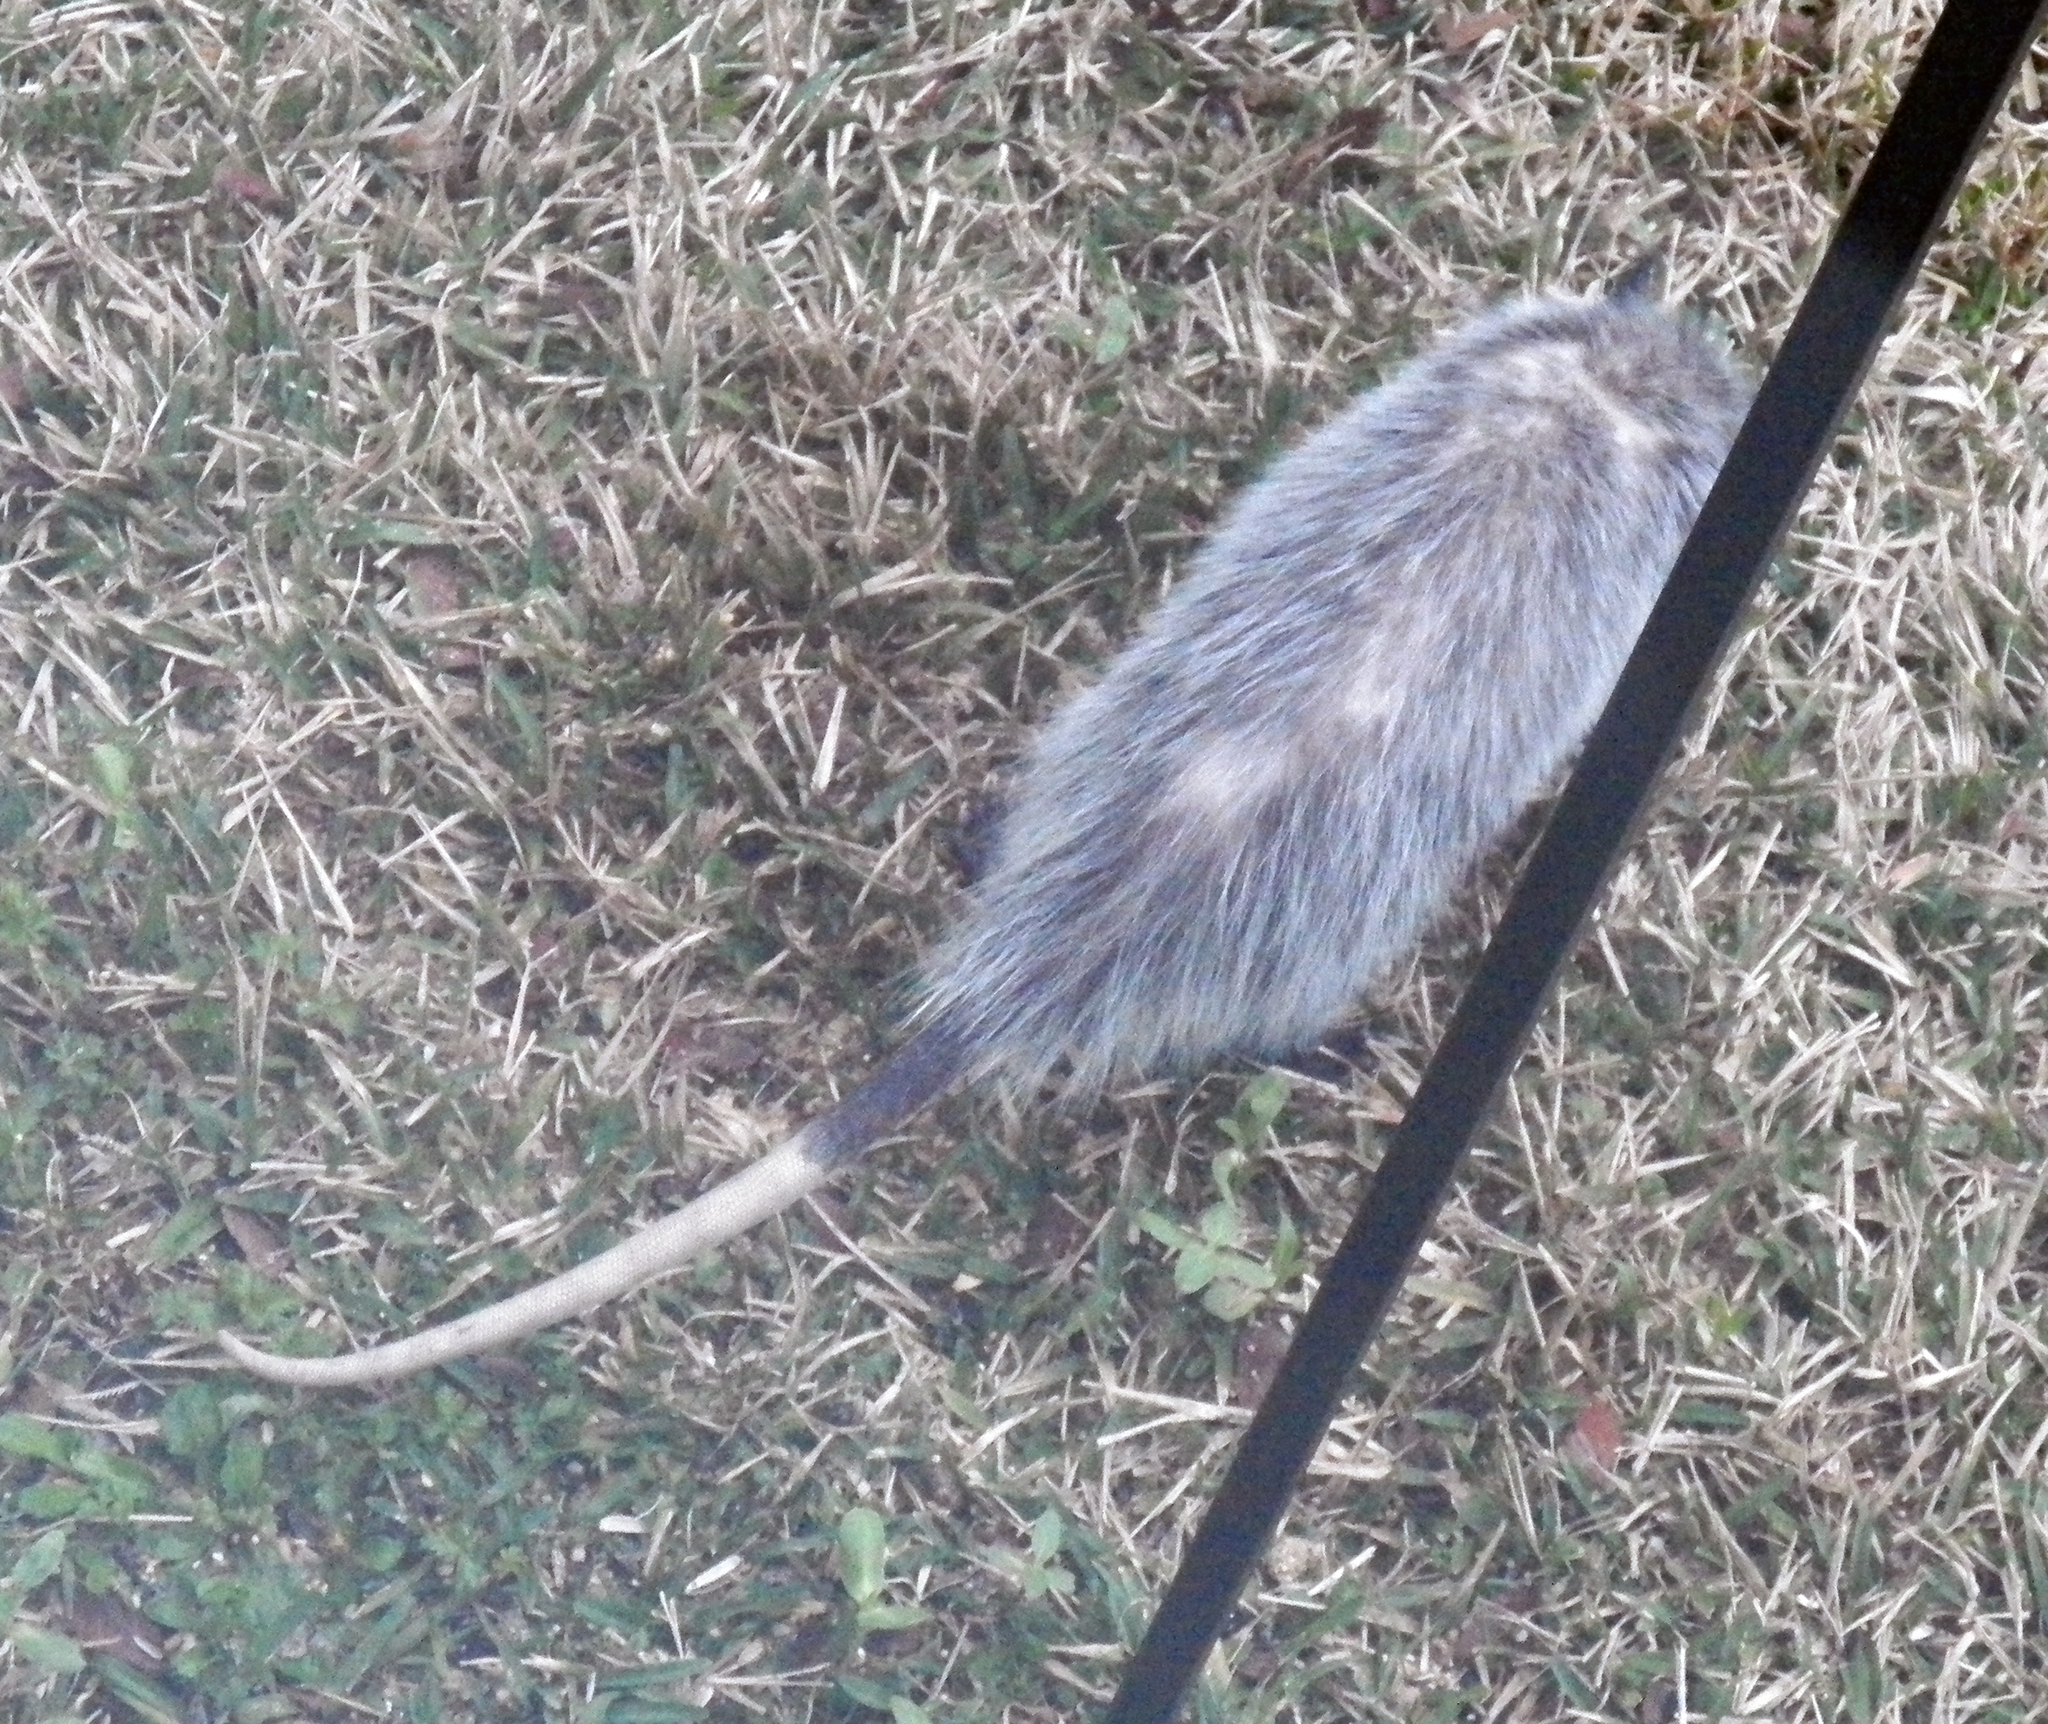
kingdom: Animalia
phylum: Chordata
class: Mammalia
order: Didelphimorphia
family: Didelphidae
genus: Didelphis
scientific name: Didelphis virginiana
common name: Virginia opossum
